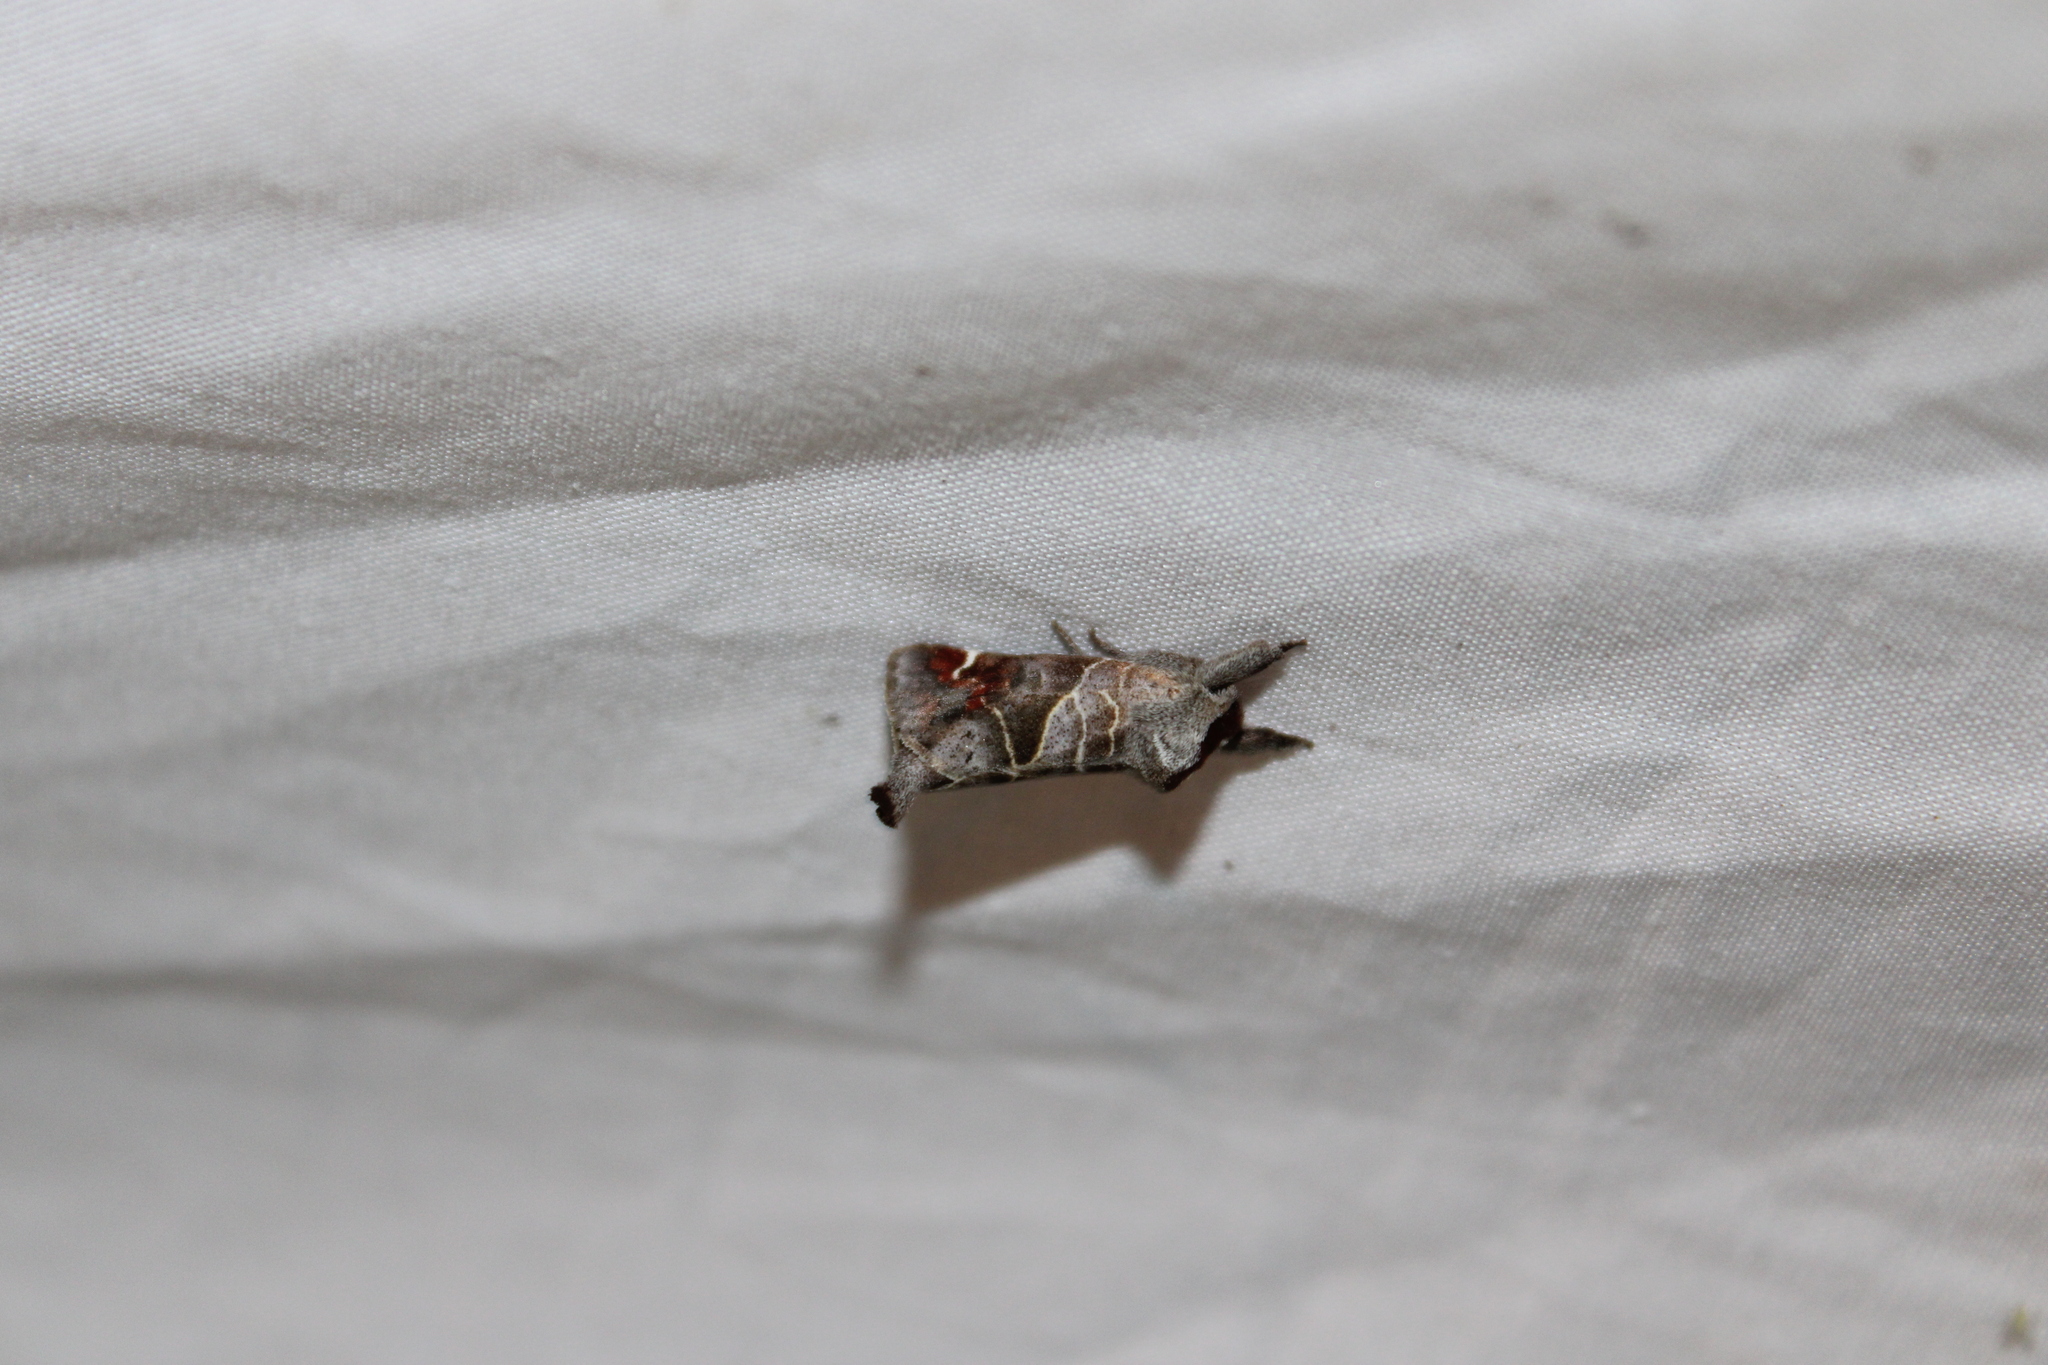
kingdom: Animalia
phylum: Arthropoda
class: Insecta
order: Lepidoptera
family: Notodontidae
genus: Clostera
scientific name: Clostera apicalis
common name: Apical prominent
